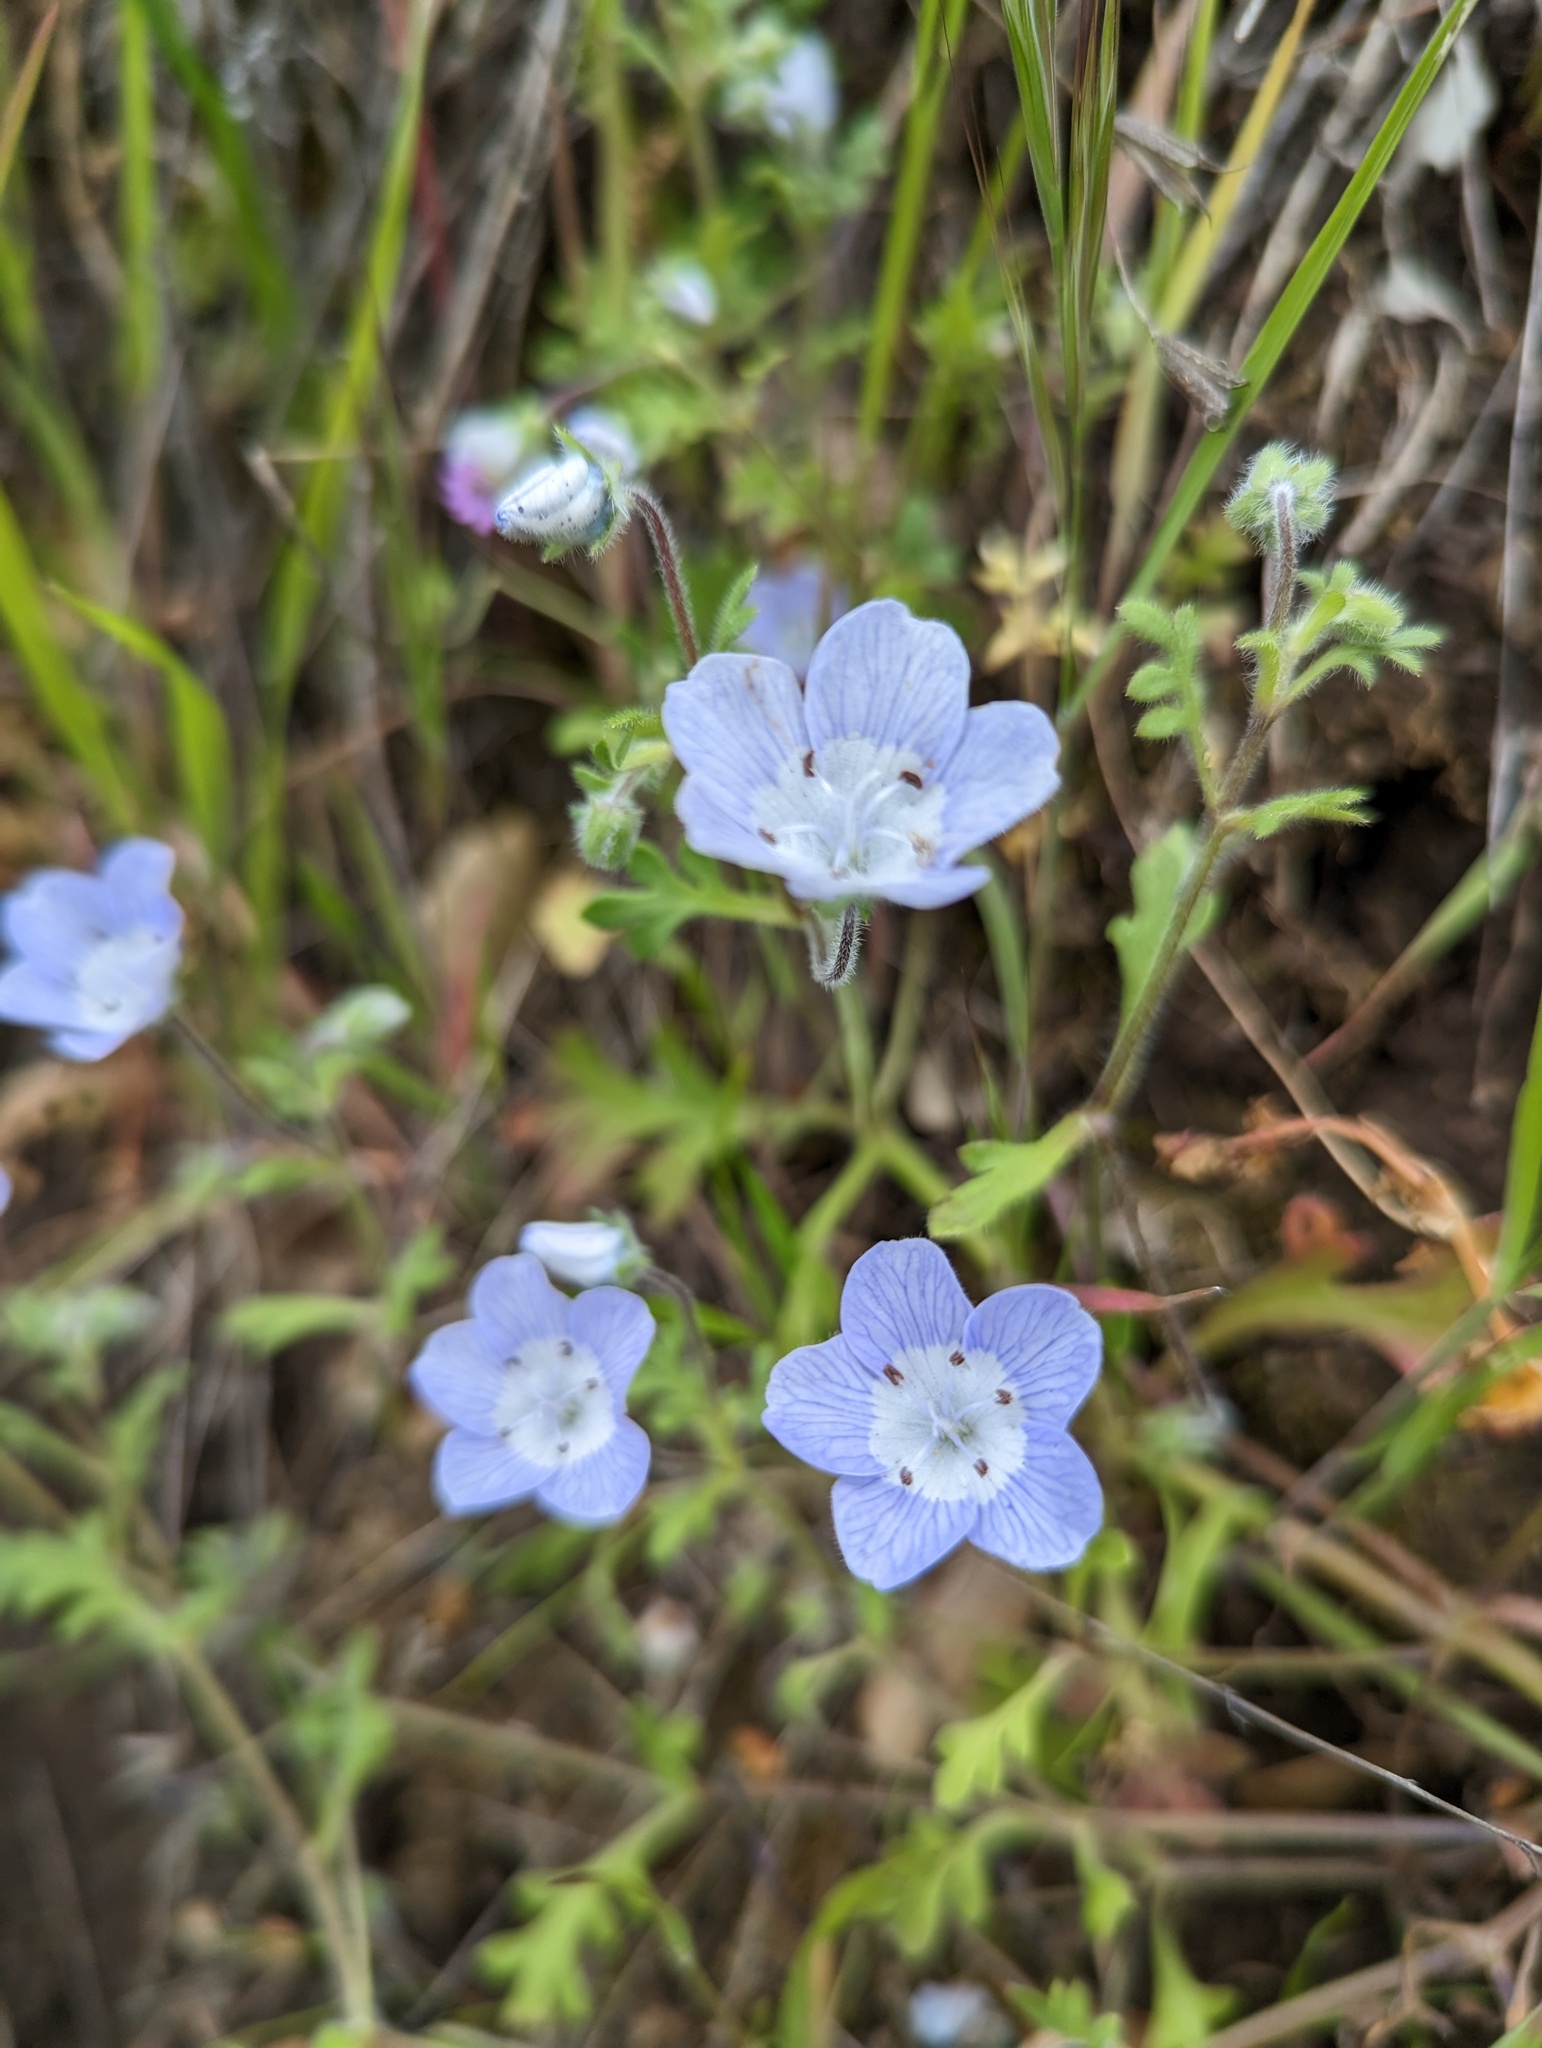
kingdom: Plantae
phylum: Tracheophyta
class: Magnoliopsida
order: Boraginales
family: Hydrophyllaceae
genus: Nemophila
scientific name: Nemophila menziesii
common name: Baby's-blue-eyes
